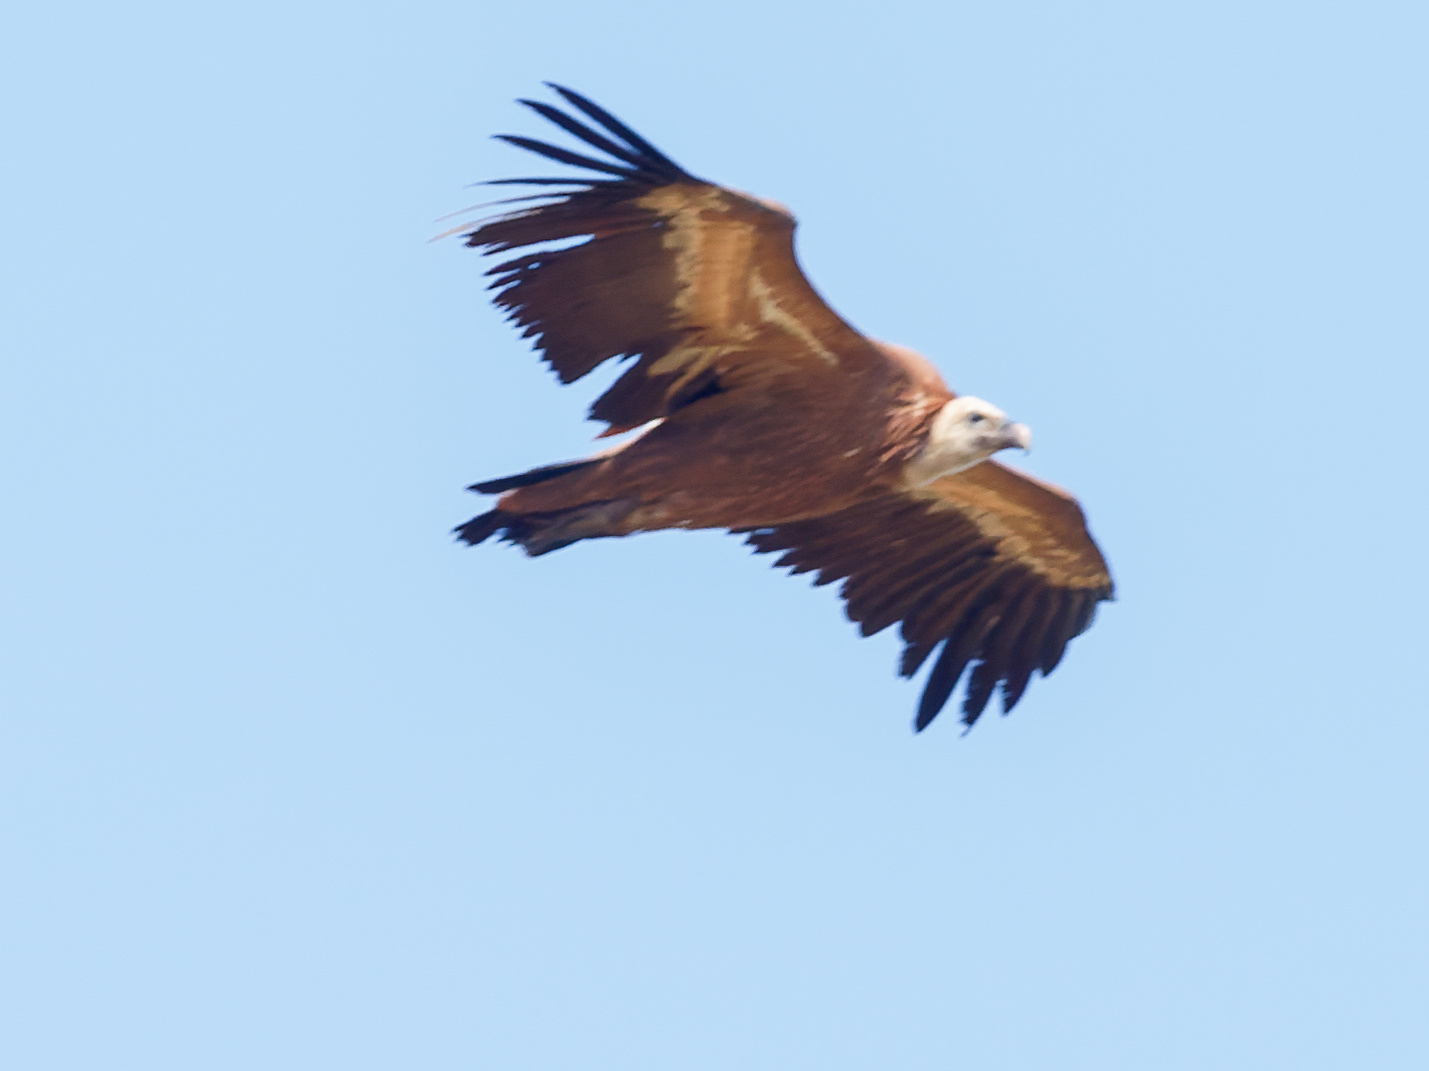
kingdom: Animalia
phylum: Chordata
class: Aves
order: Accipitriformes
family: Accipitridae
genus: Gyps
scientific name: Gyps fulvus
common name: Griffon vulture
